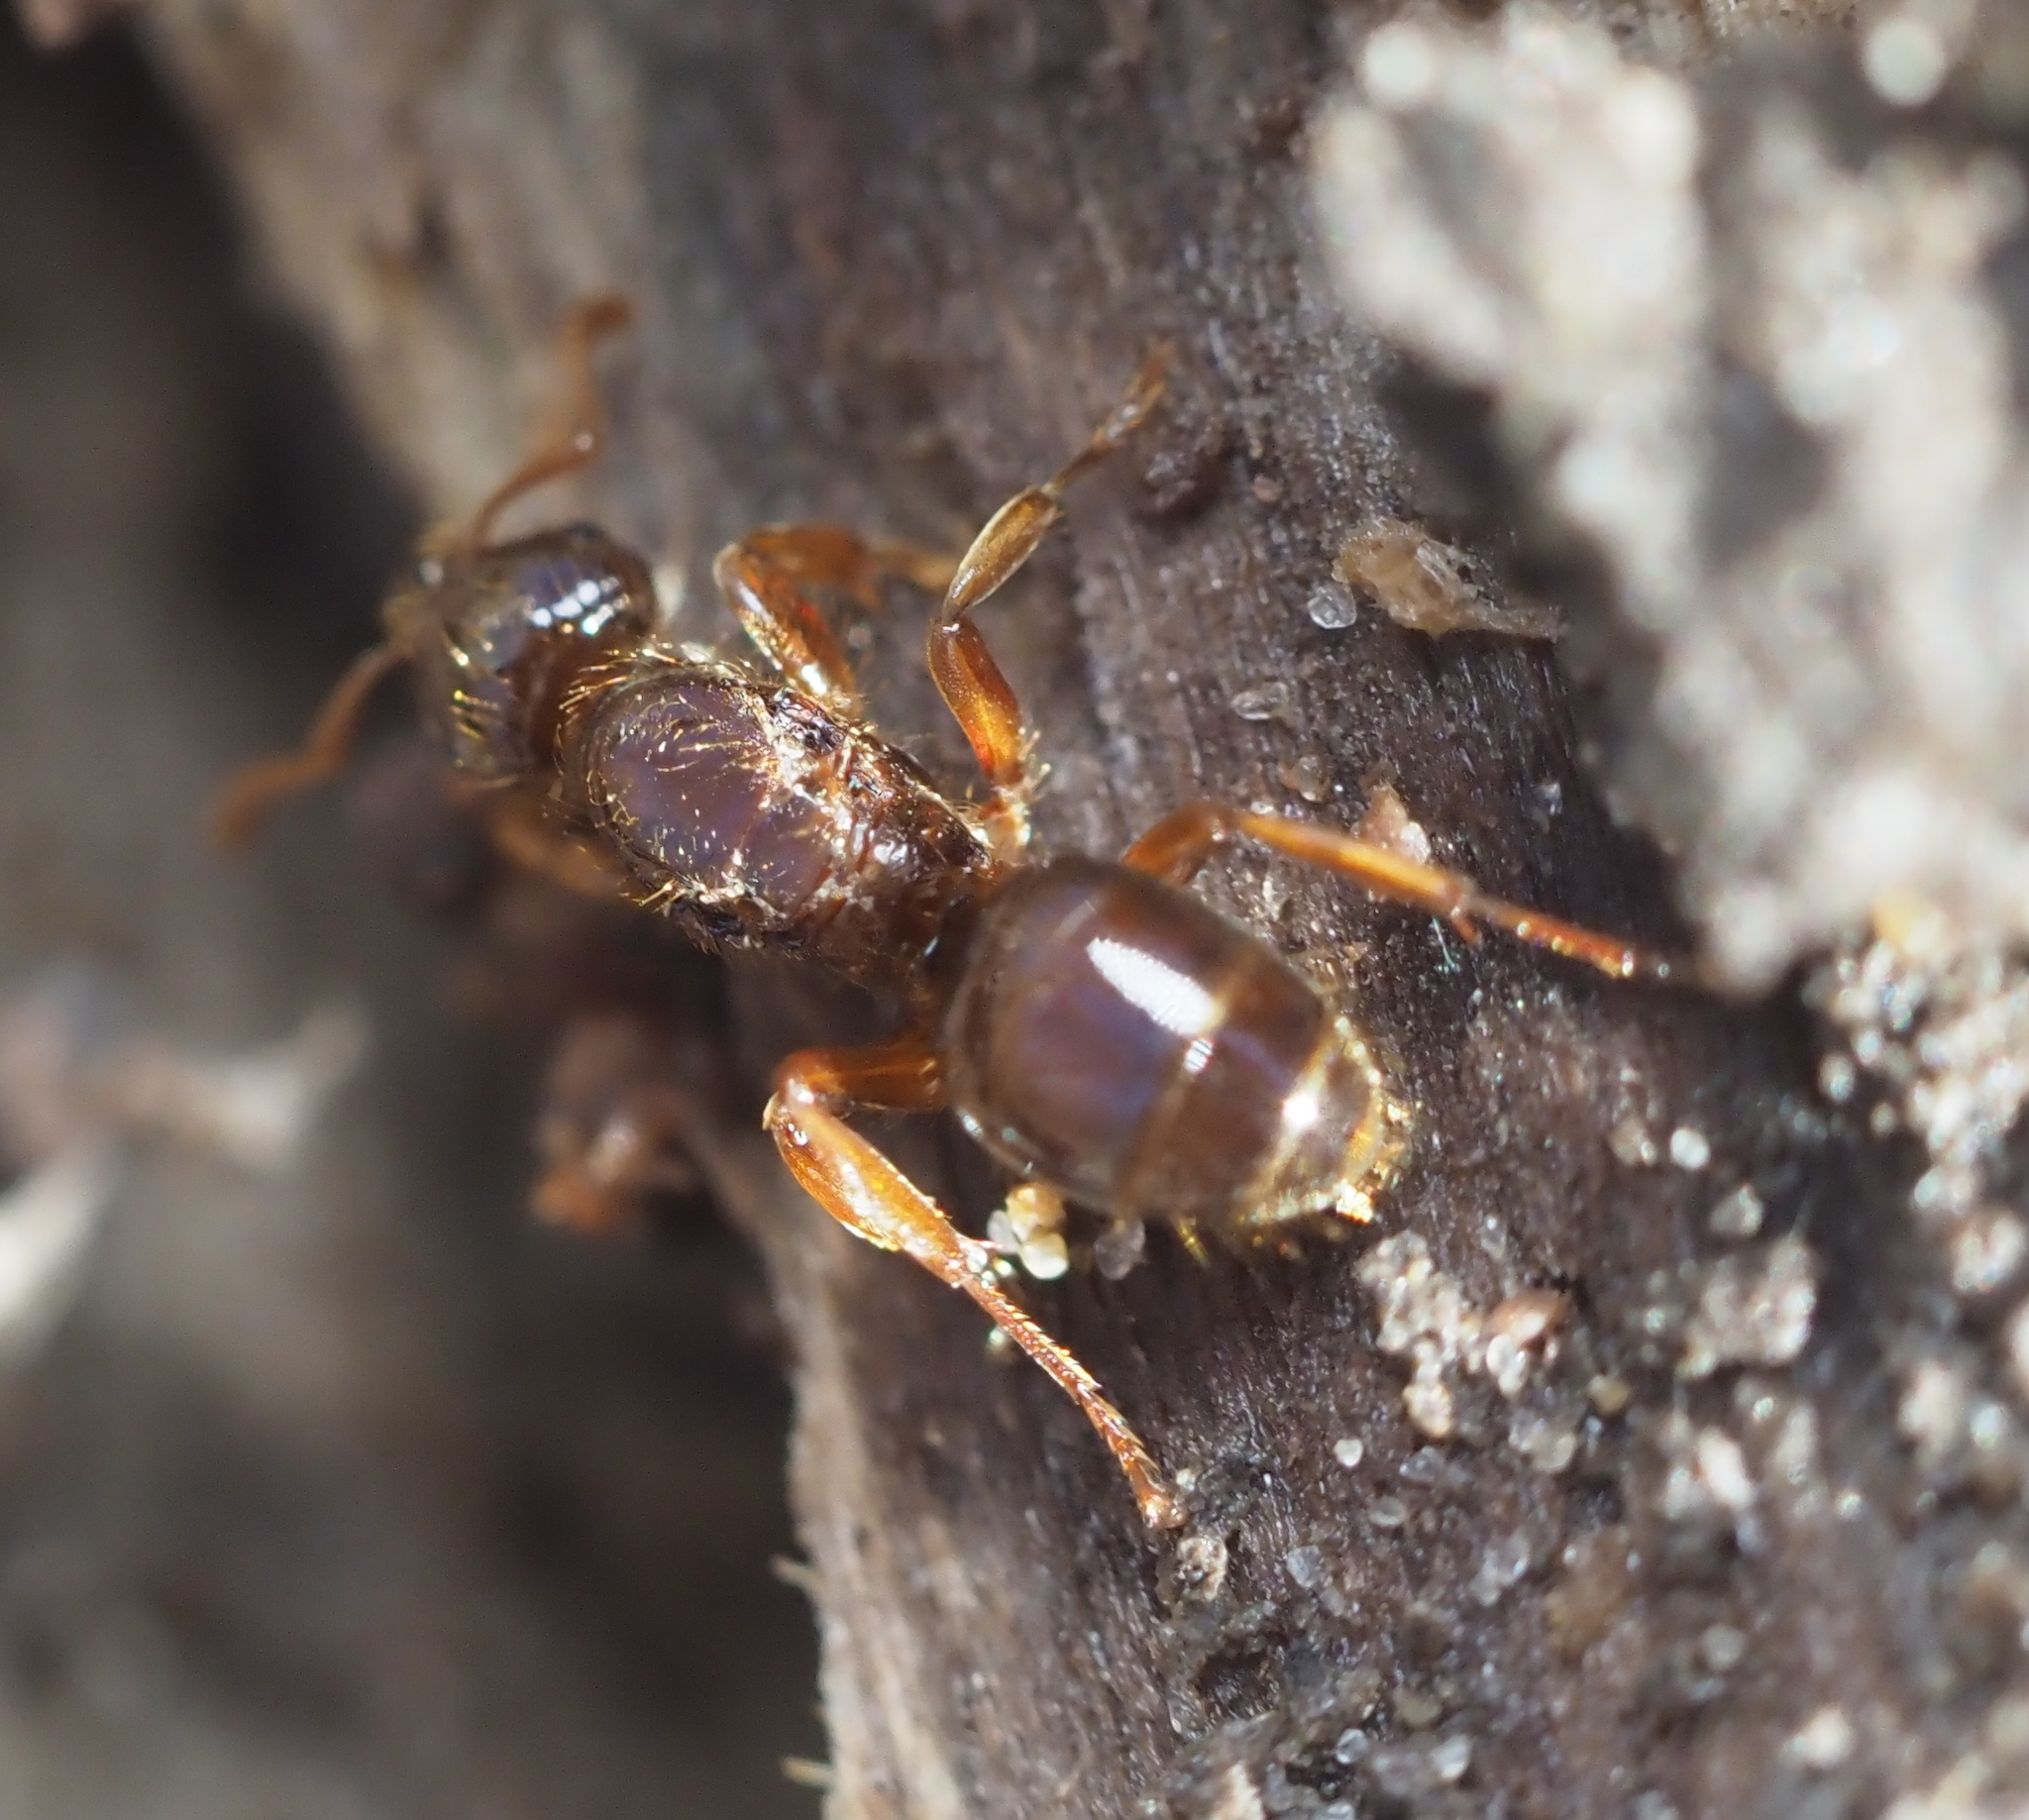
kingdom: Animalia
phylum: Arthropoda
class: Insecta
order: Hymenoptera
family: Formicidae
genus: Lasius
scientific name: Lasius claviger
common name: Common citronella ant
